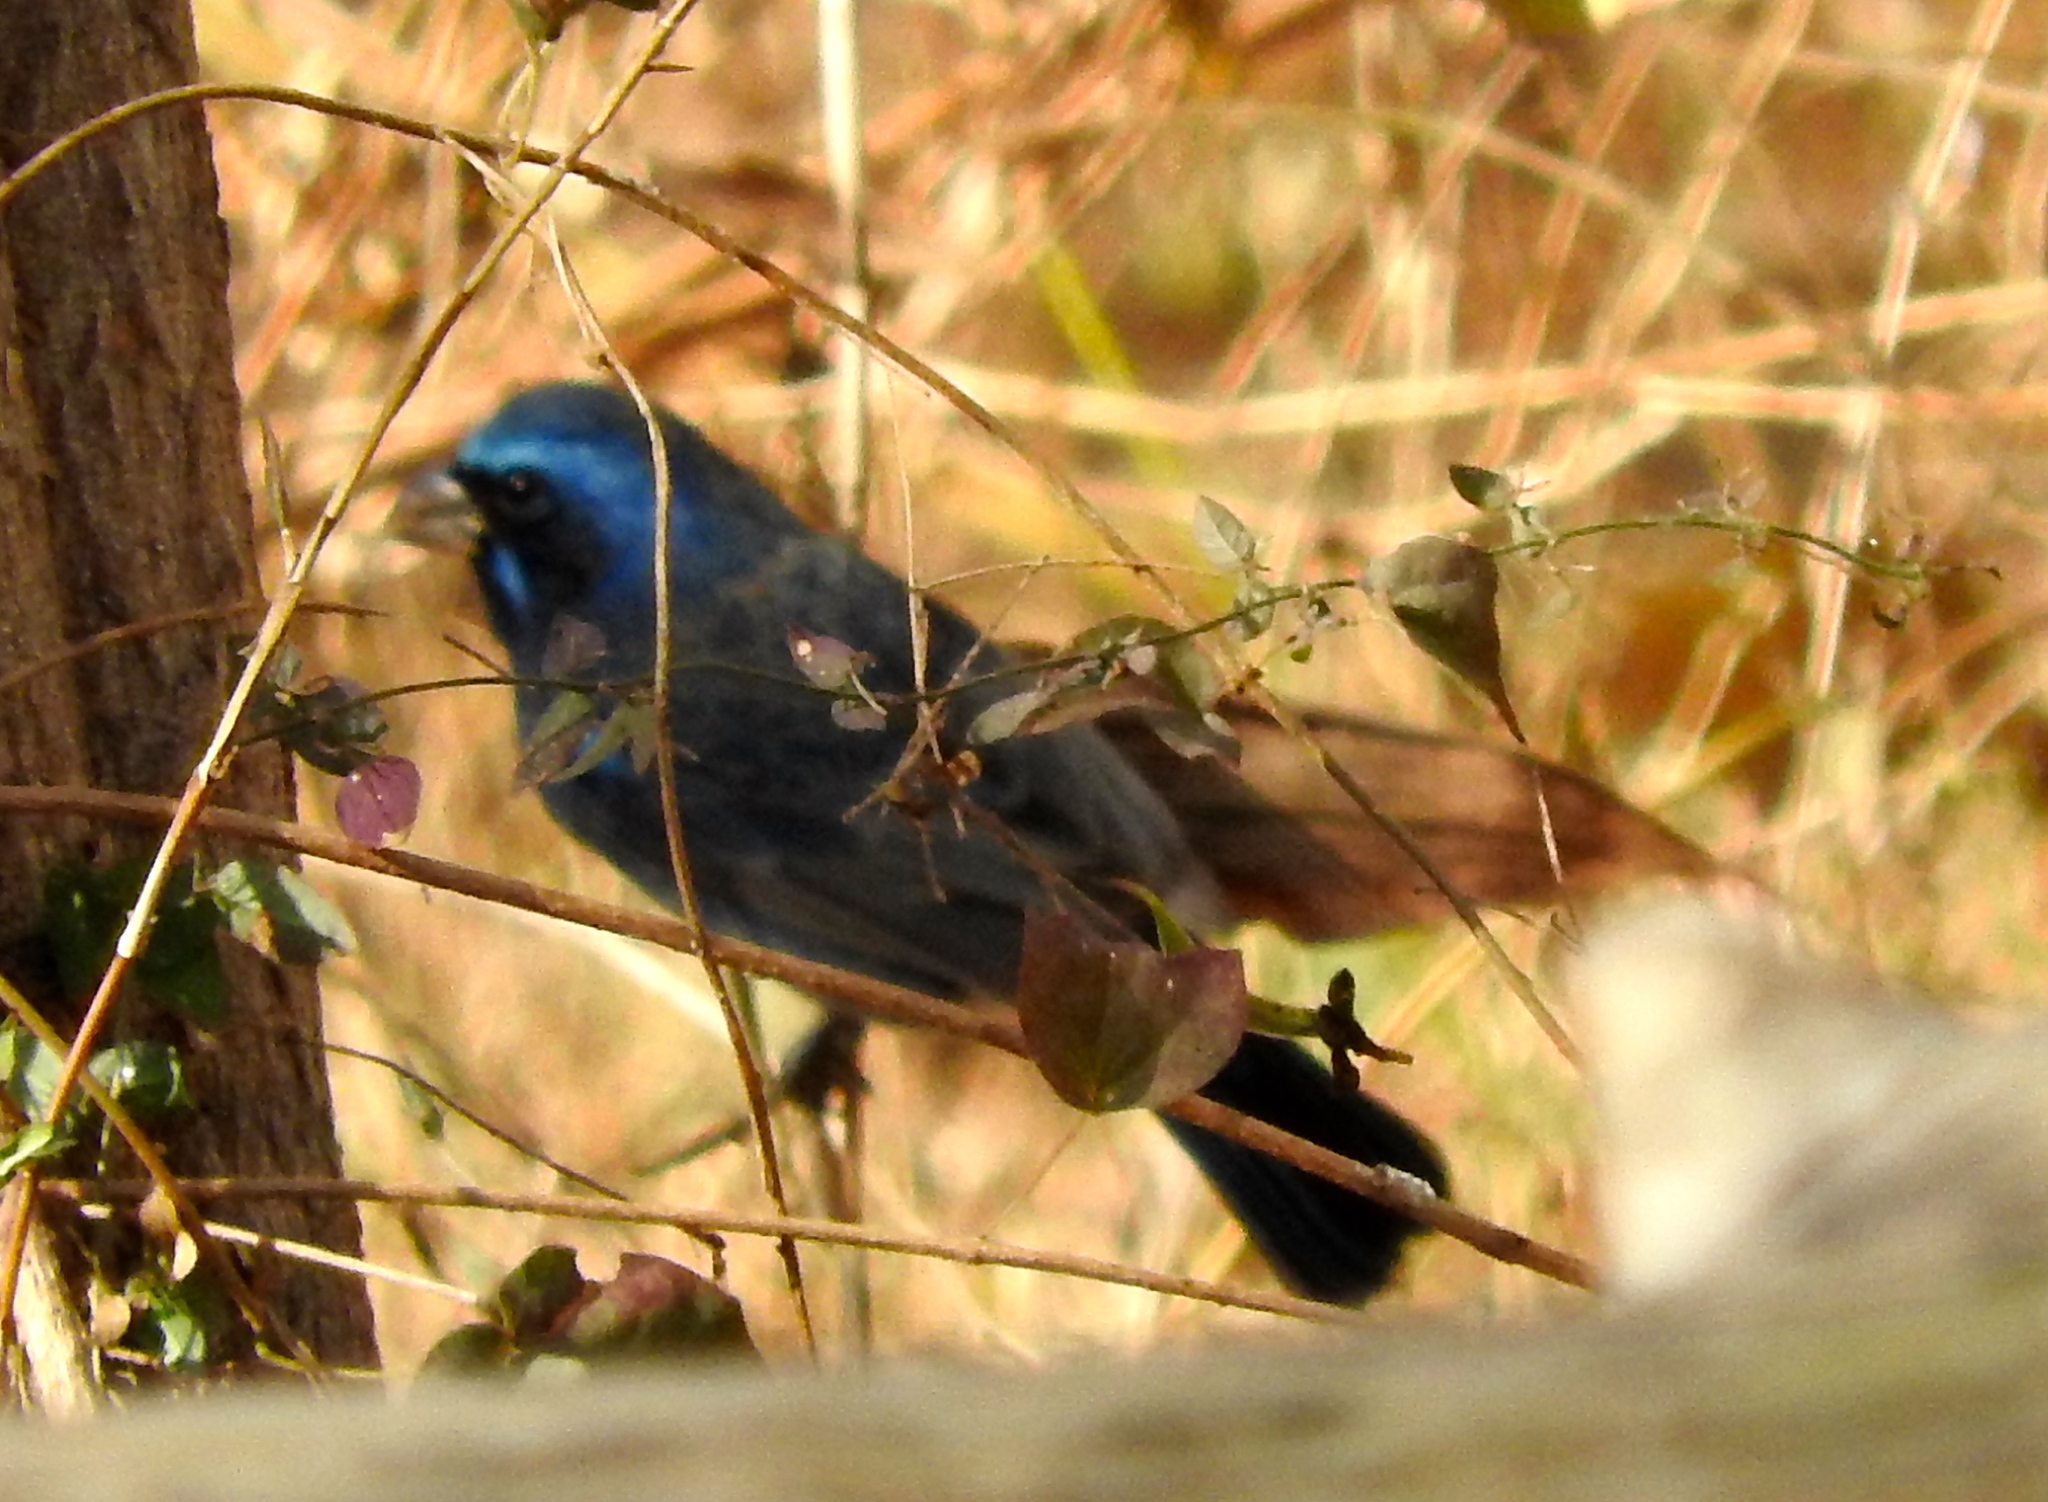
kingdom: Animalia
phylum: Chordata
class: Aves
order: Passeriformes
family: Cardinalidae
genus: Cyanocompsa
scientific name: Cyanocompsa parellina
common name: Blue bunting
